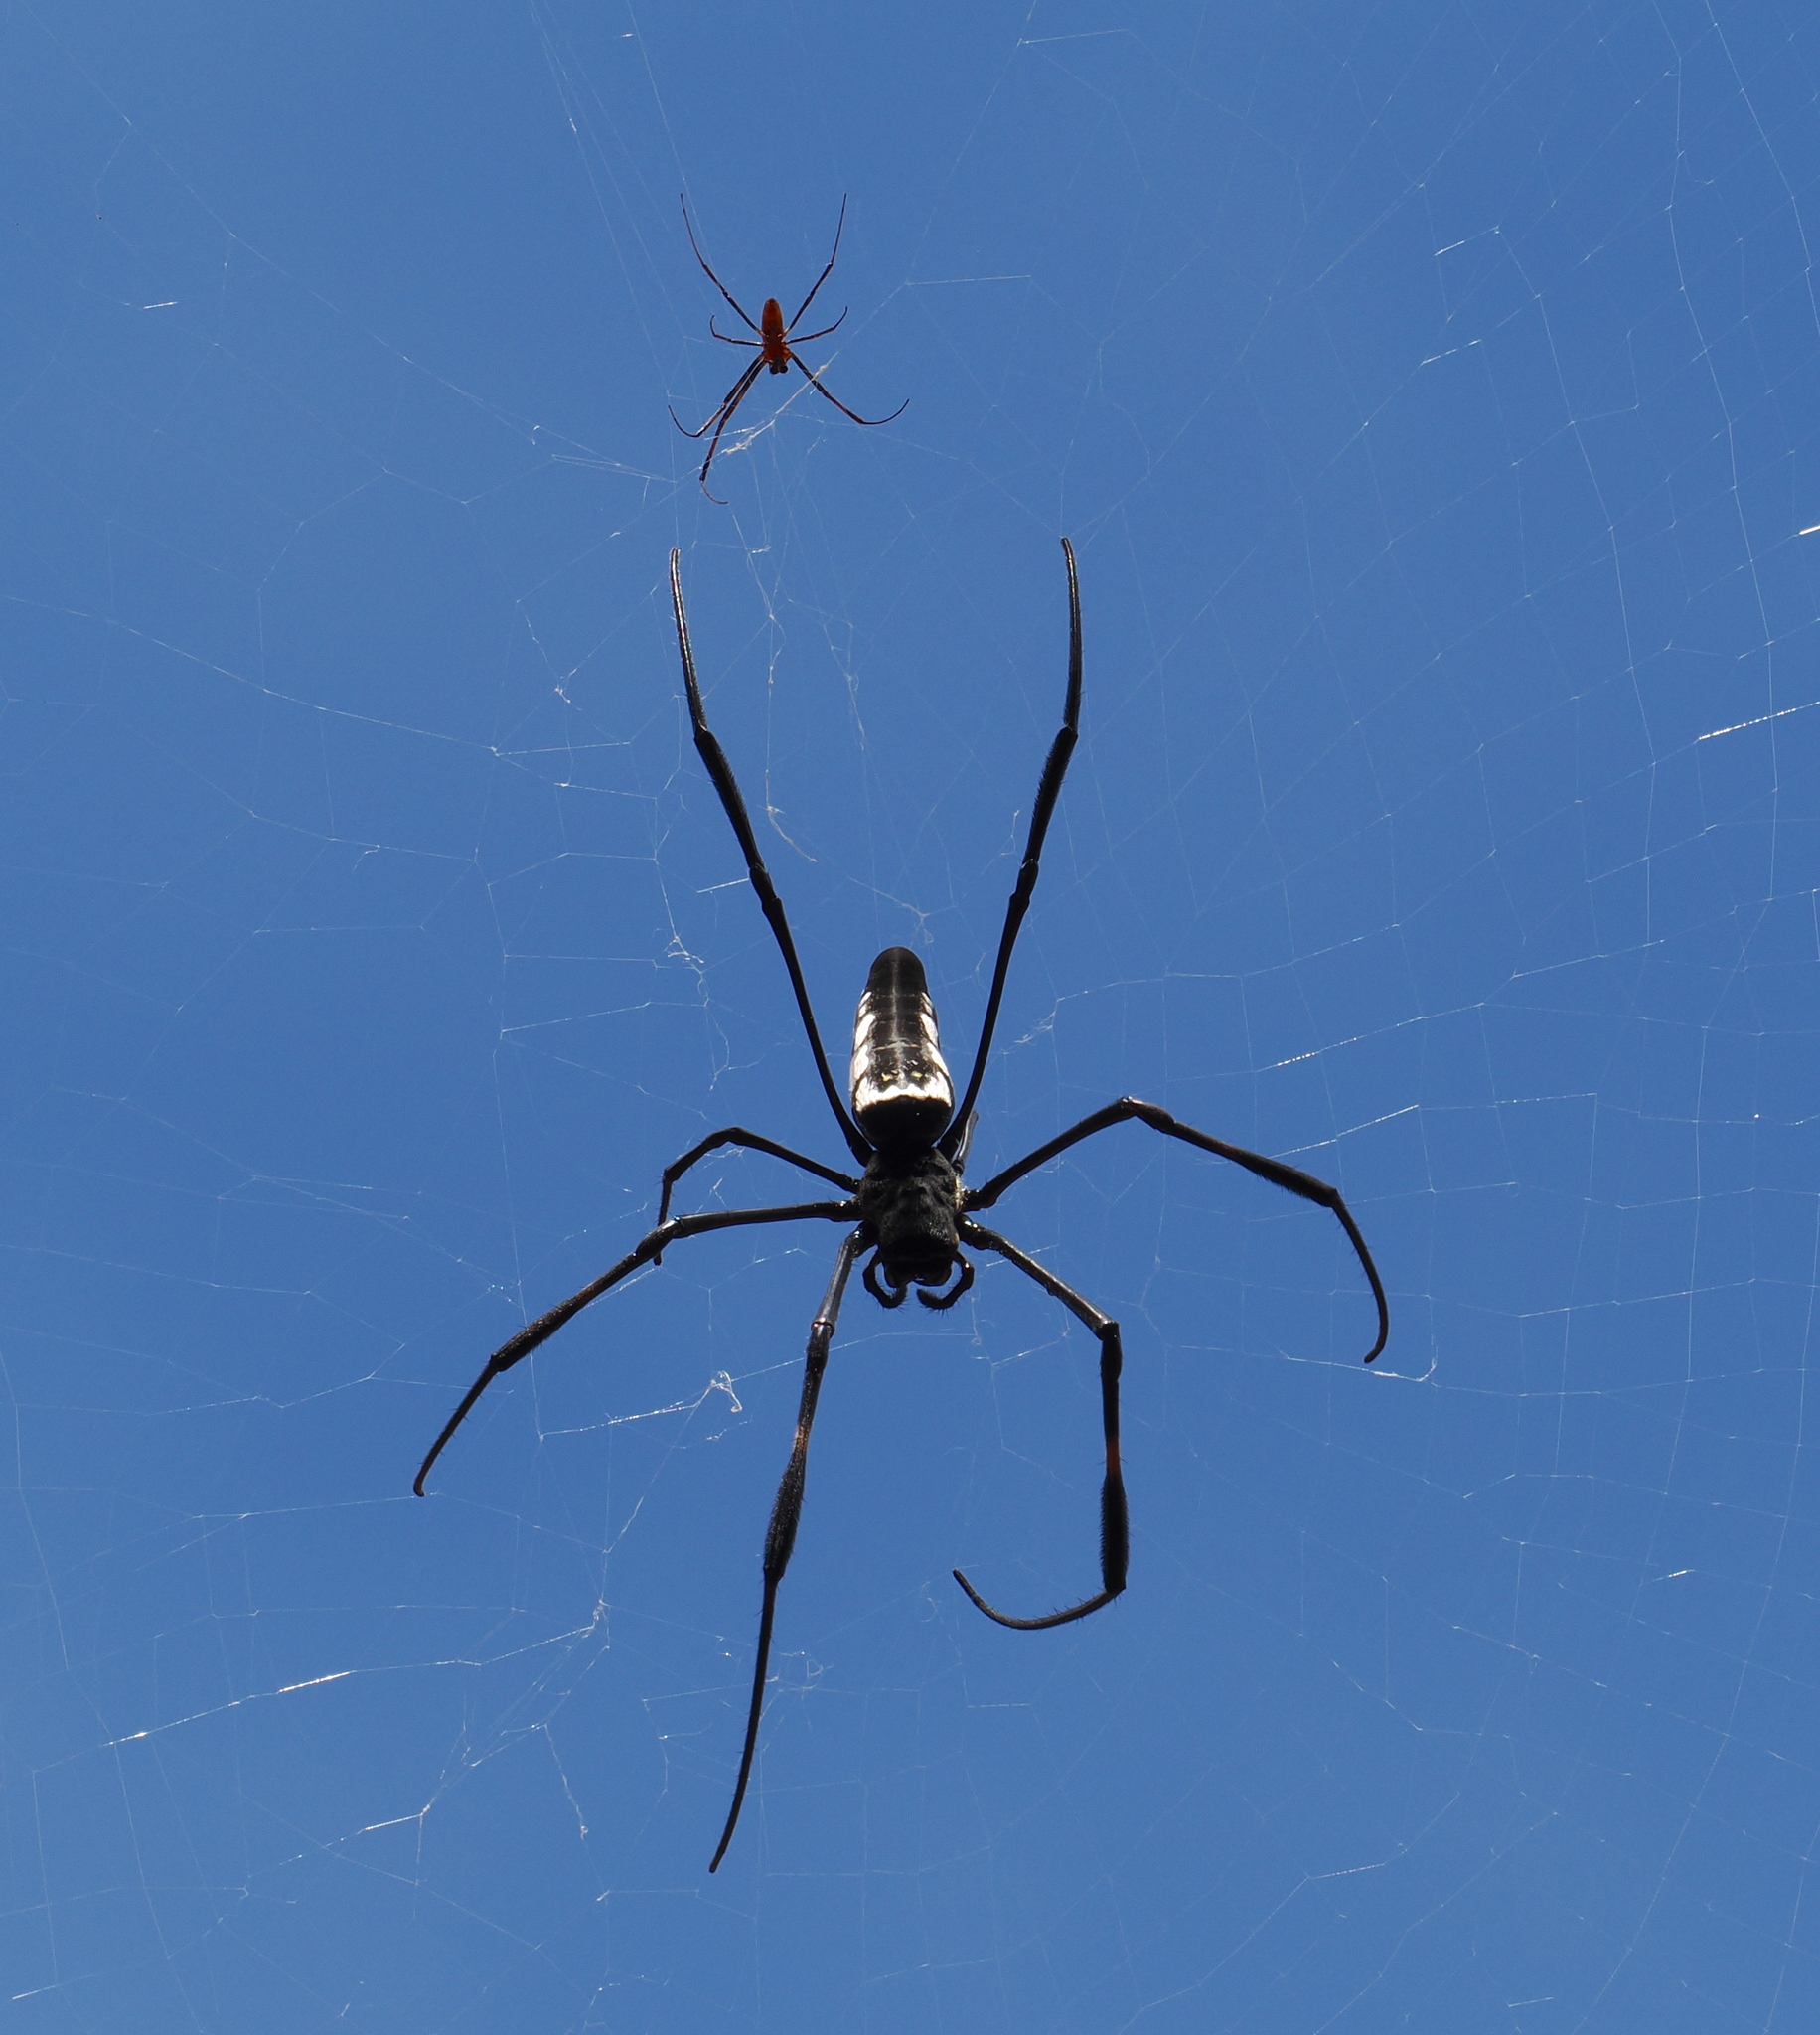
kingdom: Animalia
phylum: Arthropoda
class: Arachnida
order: Araneae
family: Araneidae
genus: Trichonephila
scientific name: Trichonephila antipodiana
